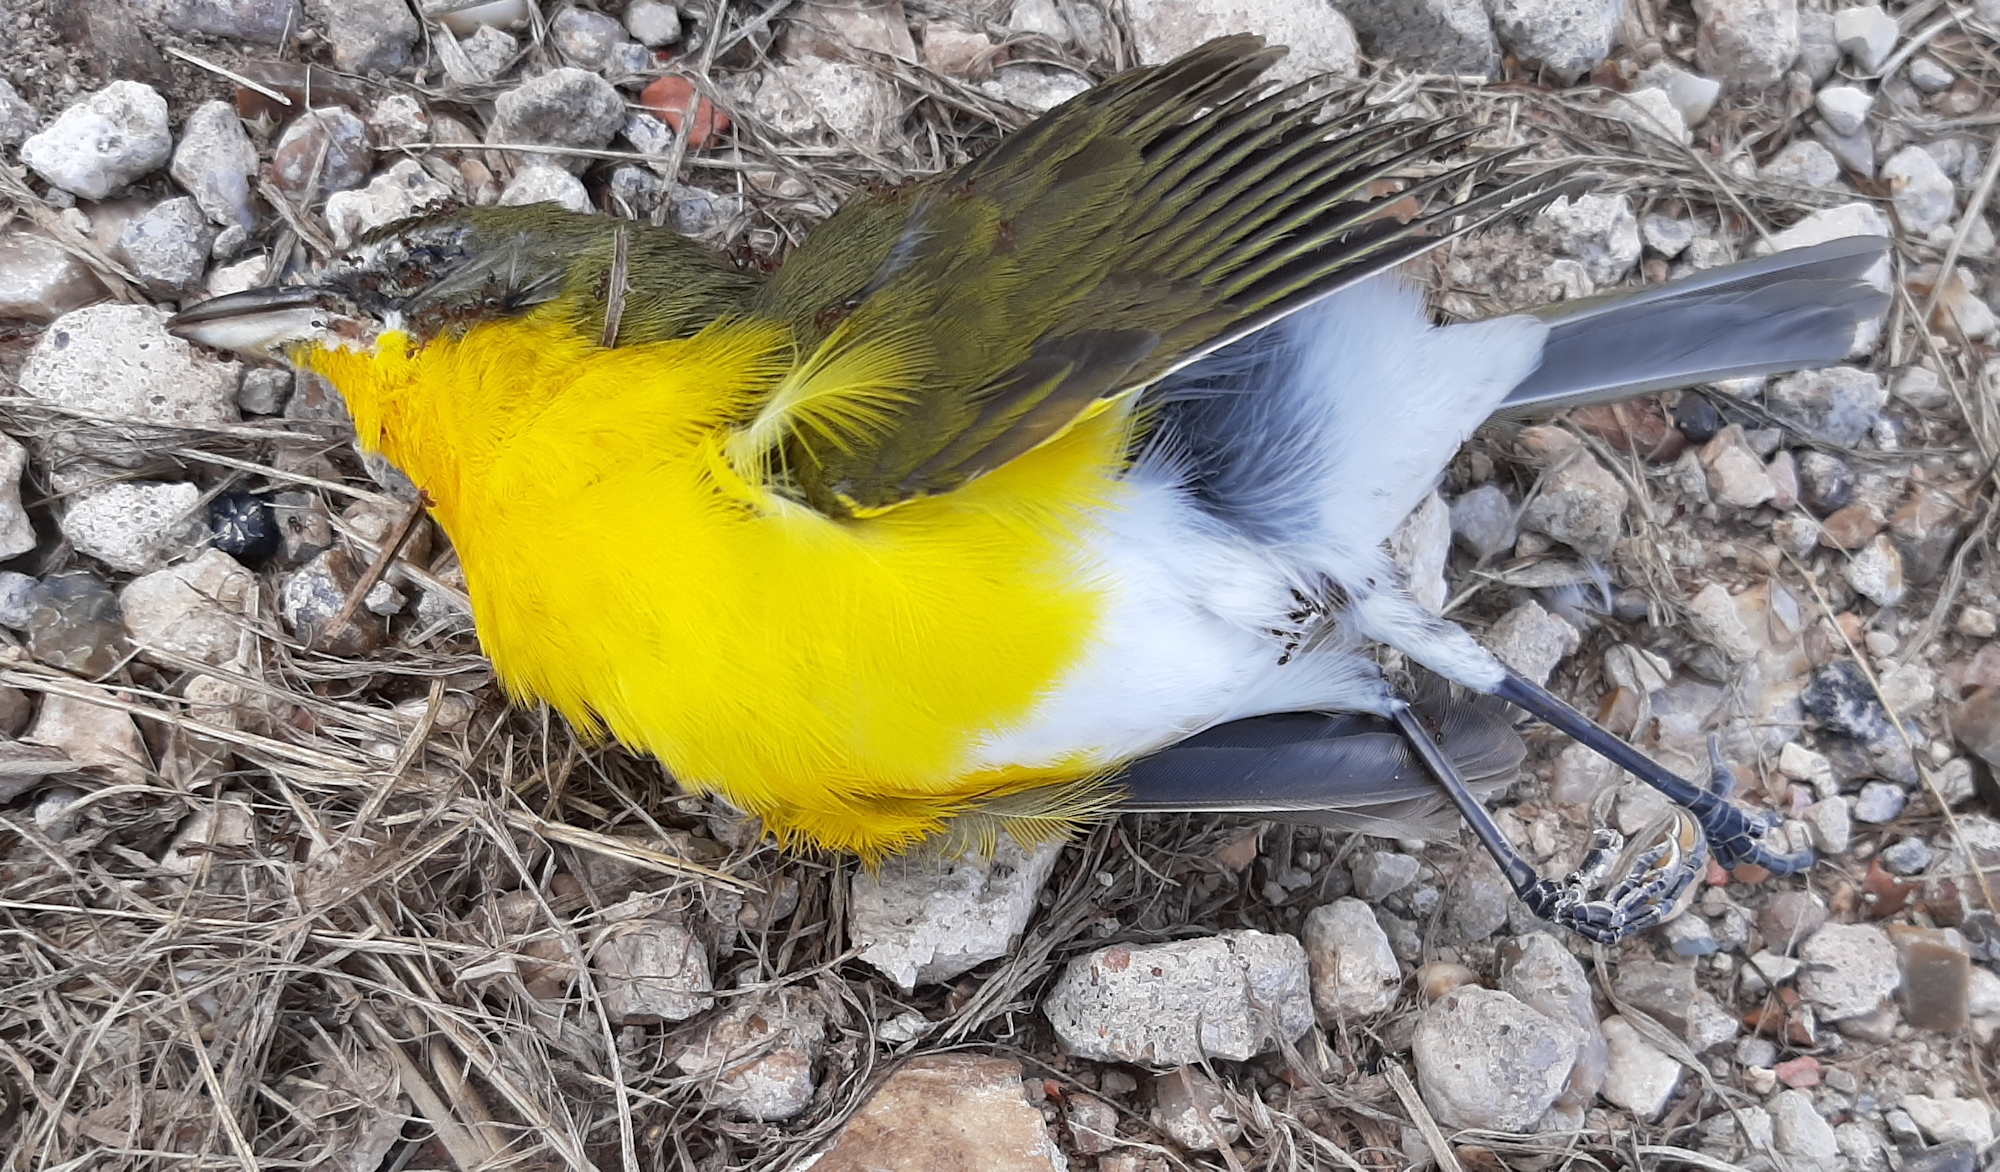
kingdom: Animalia
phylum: Chordata
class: Aves
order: Passeriformes
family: Parulidae
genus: Icteria
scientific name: Icteria virens
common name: Yellow-breasted chat
